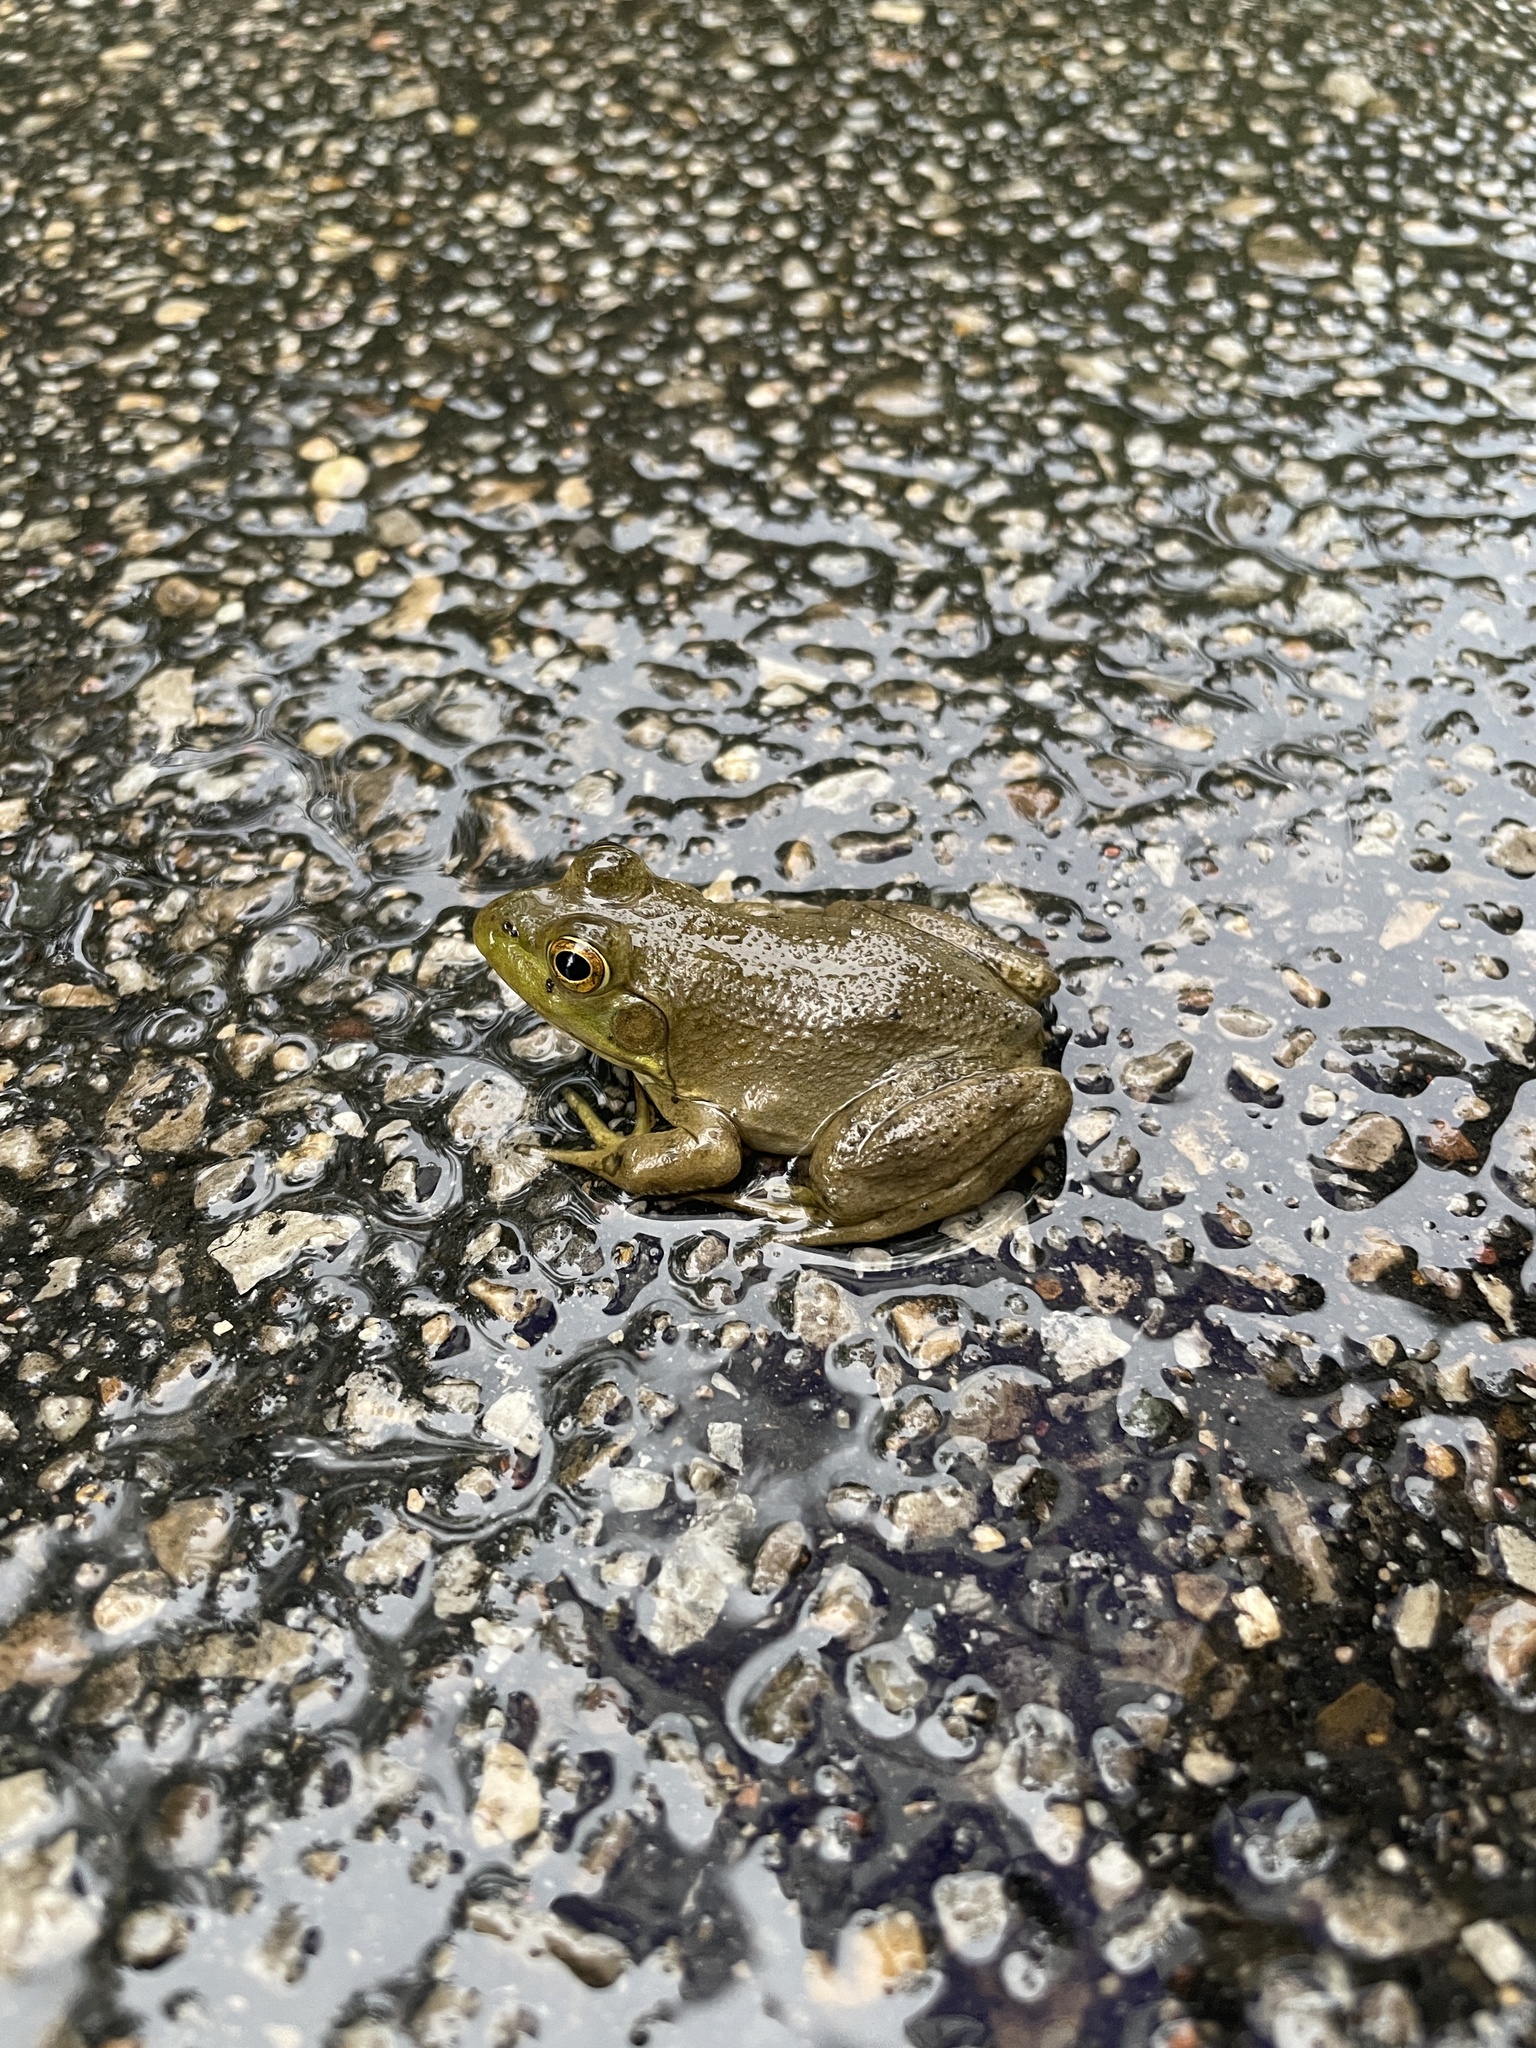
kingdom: Animalia
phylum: Chordata
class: Amphibia
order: Anura
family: Ranidae
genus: Lithobates
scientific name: Lithobates catesbeianus
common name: American bullfrog
